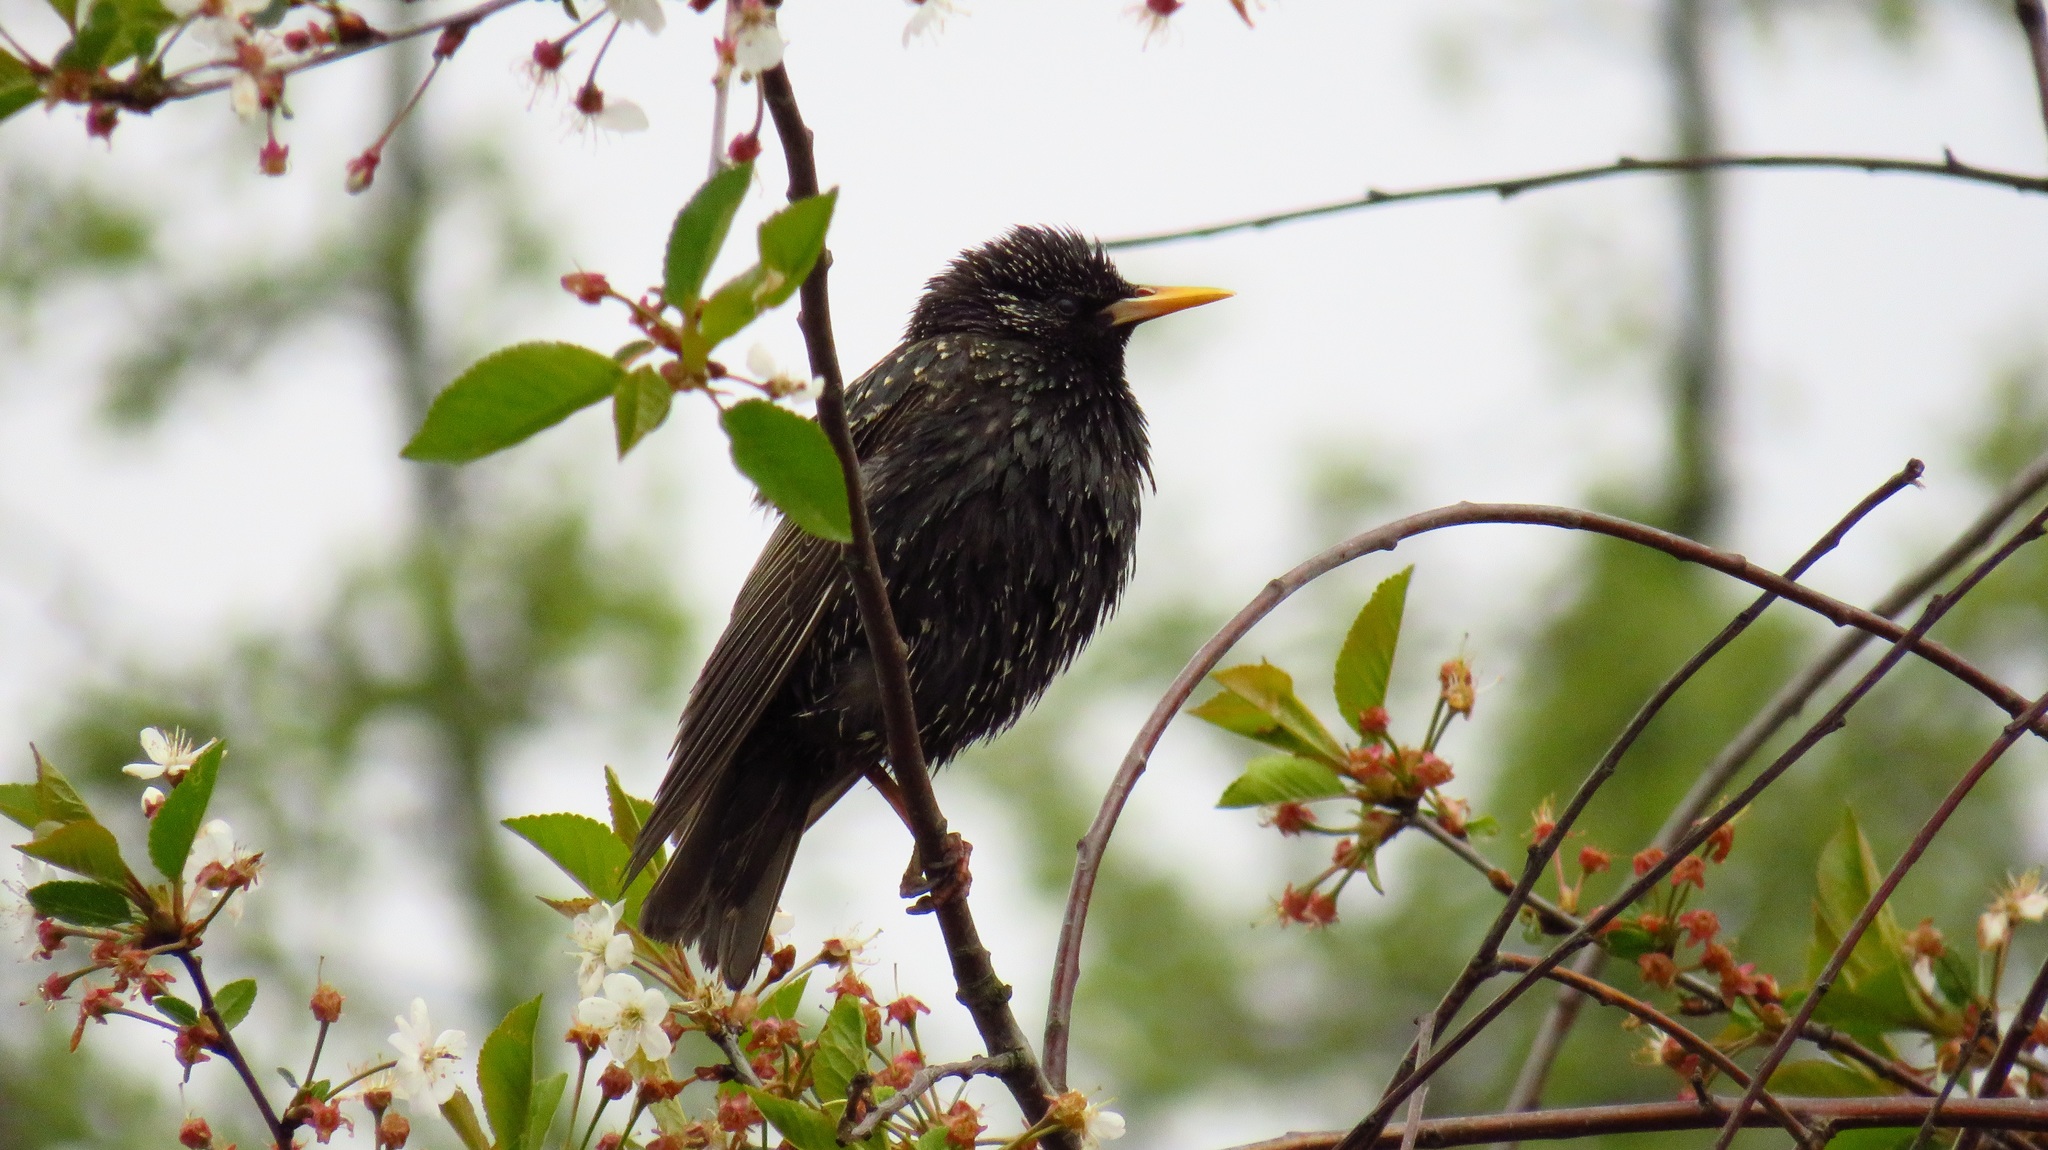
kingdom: Animalia
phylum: Chordata
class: Aves
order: Passeriformes
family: Sturnidae
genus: Sturnus
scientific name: Sturnus vulgaris
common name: Common starling
